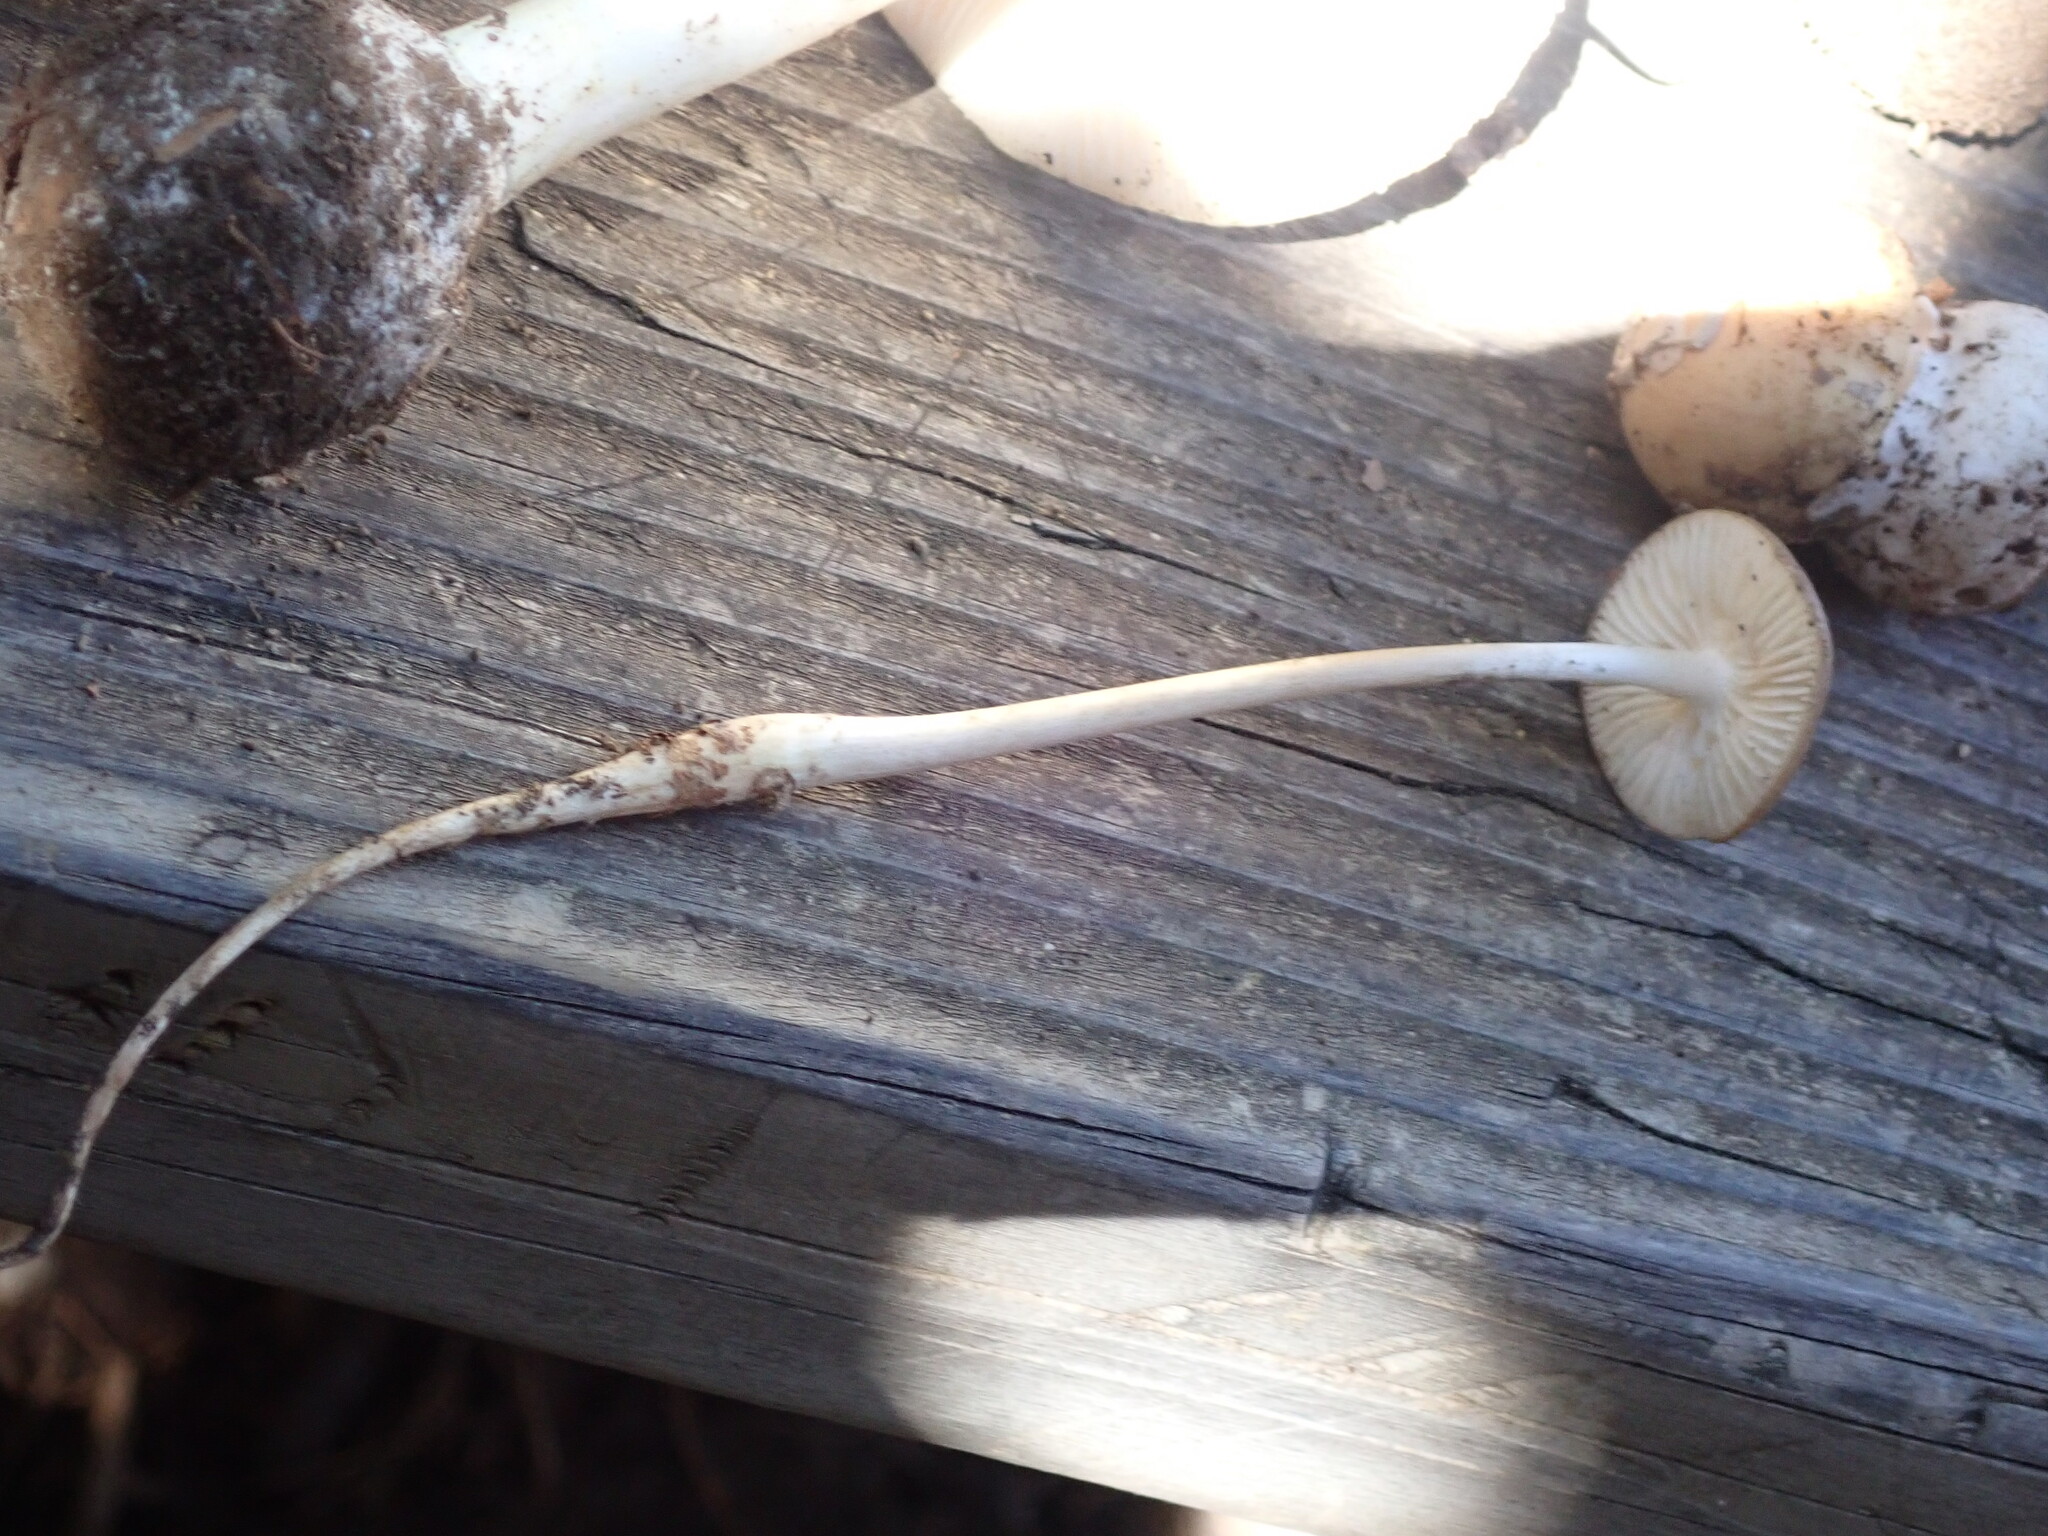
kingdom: Fungi
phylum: Basidiomycota
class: Agaricomycetes
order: Agaricales
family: Physalacriaceae
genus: Hymenopellis
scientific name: Hymenopellis radicata
